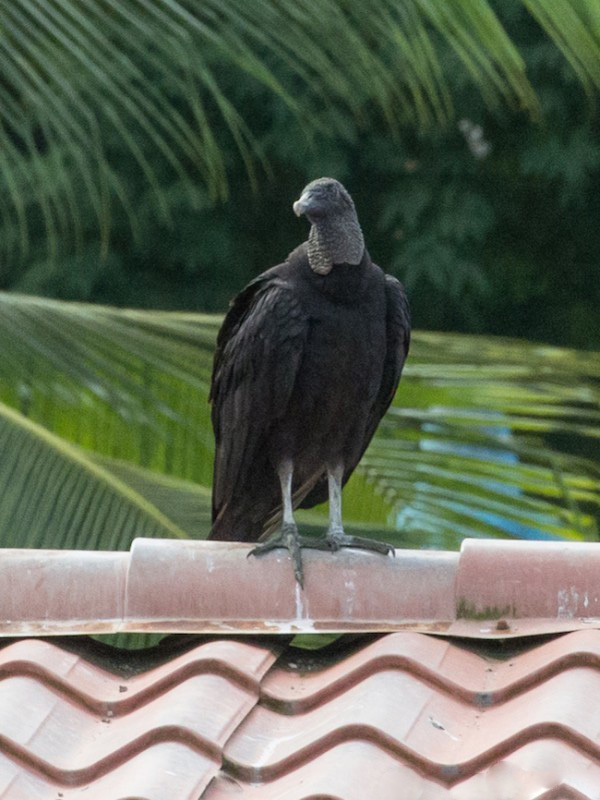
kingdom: Animalia
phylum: Chordata
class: Aves
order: Accipitriformes
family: Cathartidae
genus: Coragyps
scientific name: Coragyps atratus
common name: Black vulture
